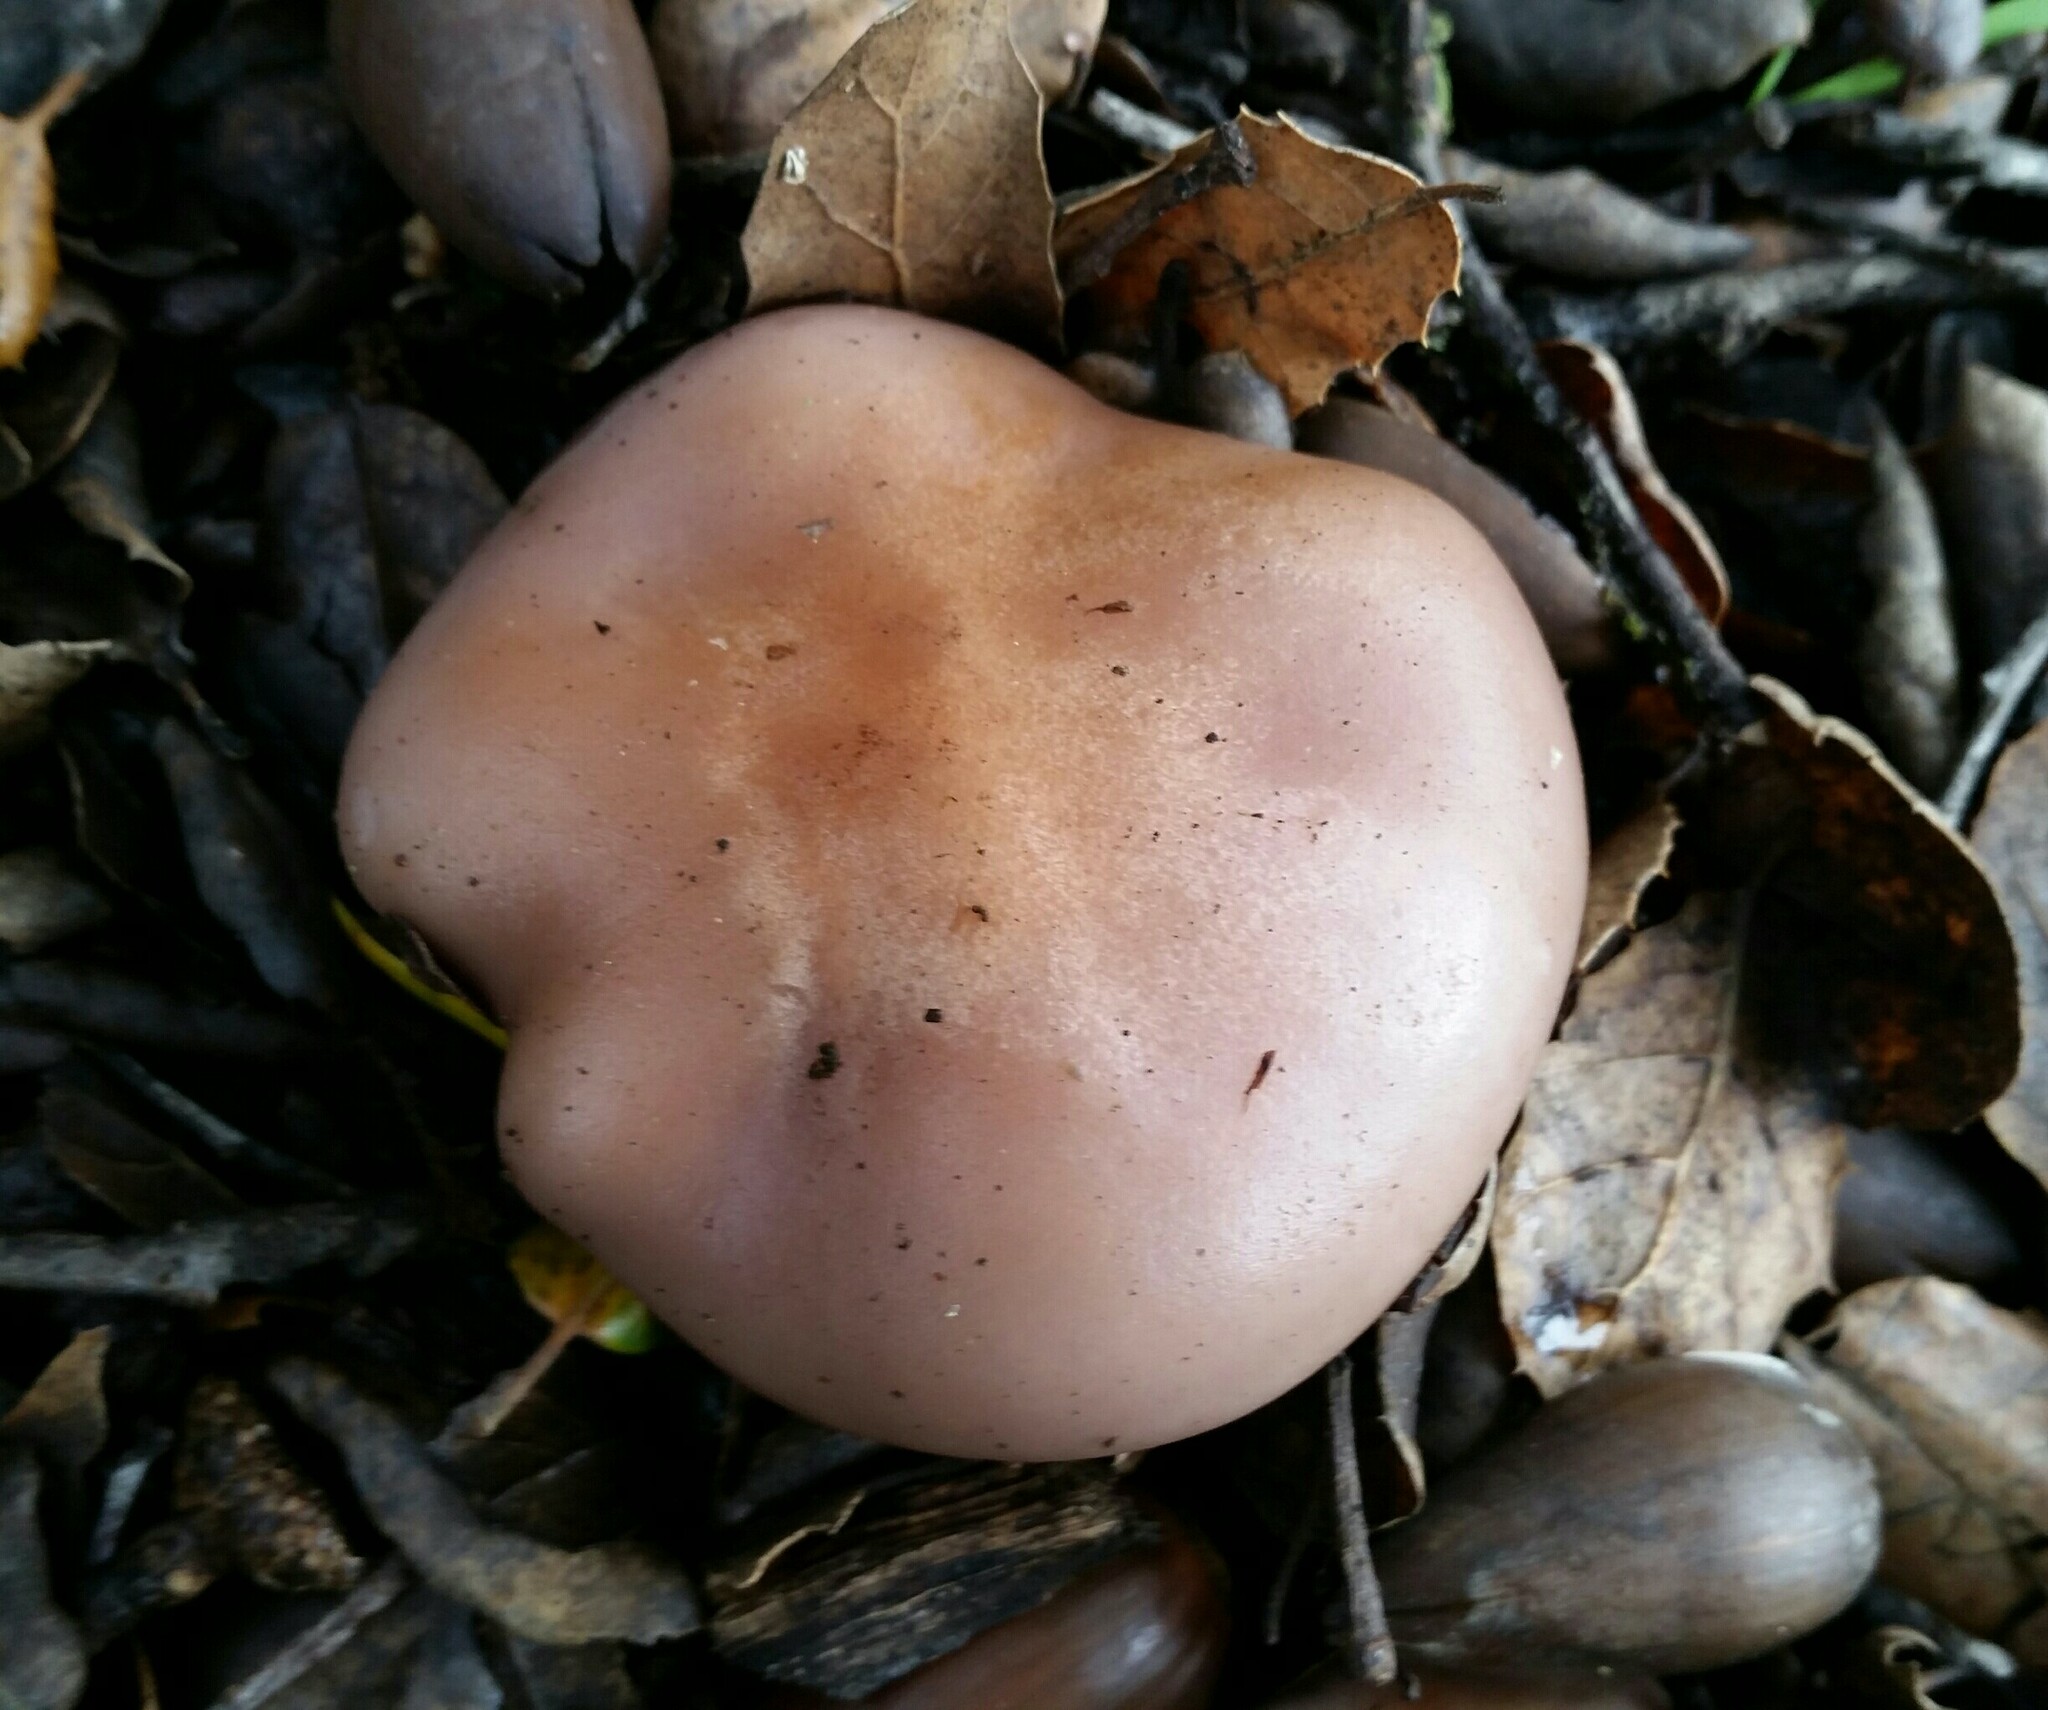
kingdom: Fungi
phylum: Basidiomycota
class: Agaricomycetes
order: Agaricales
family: Tricholomataceae
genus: Collybia
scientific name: Collybia
